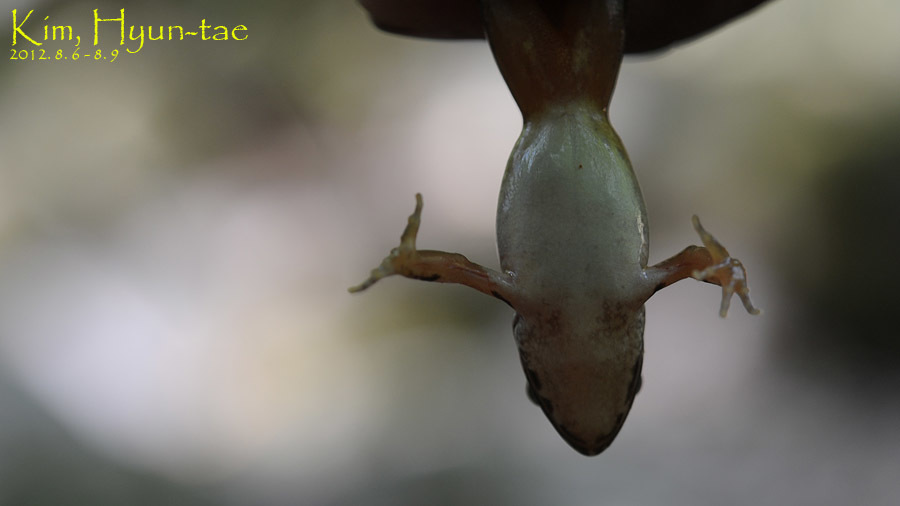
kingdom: Animalia
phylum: Chordata
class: Amphibia
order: Anura
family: Ranidae
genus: Rana
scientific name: Rana uenoi
